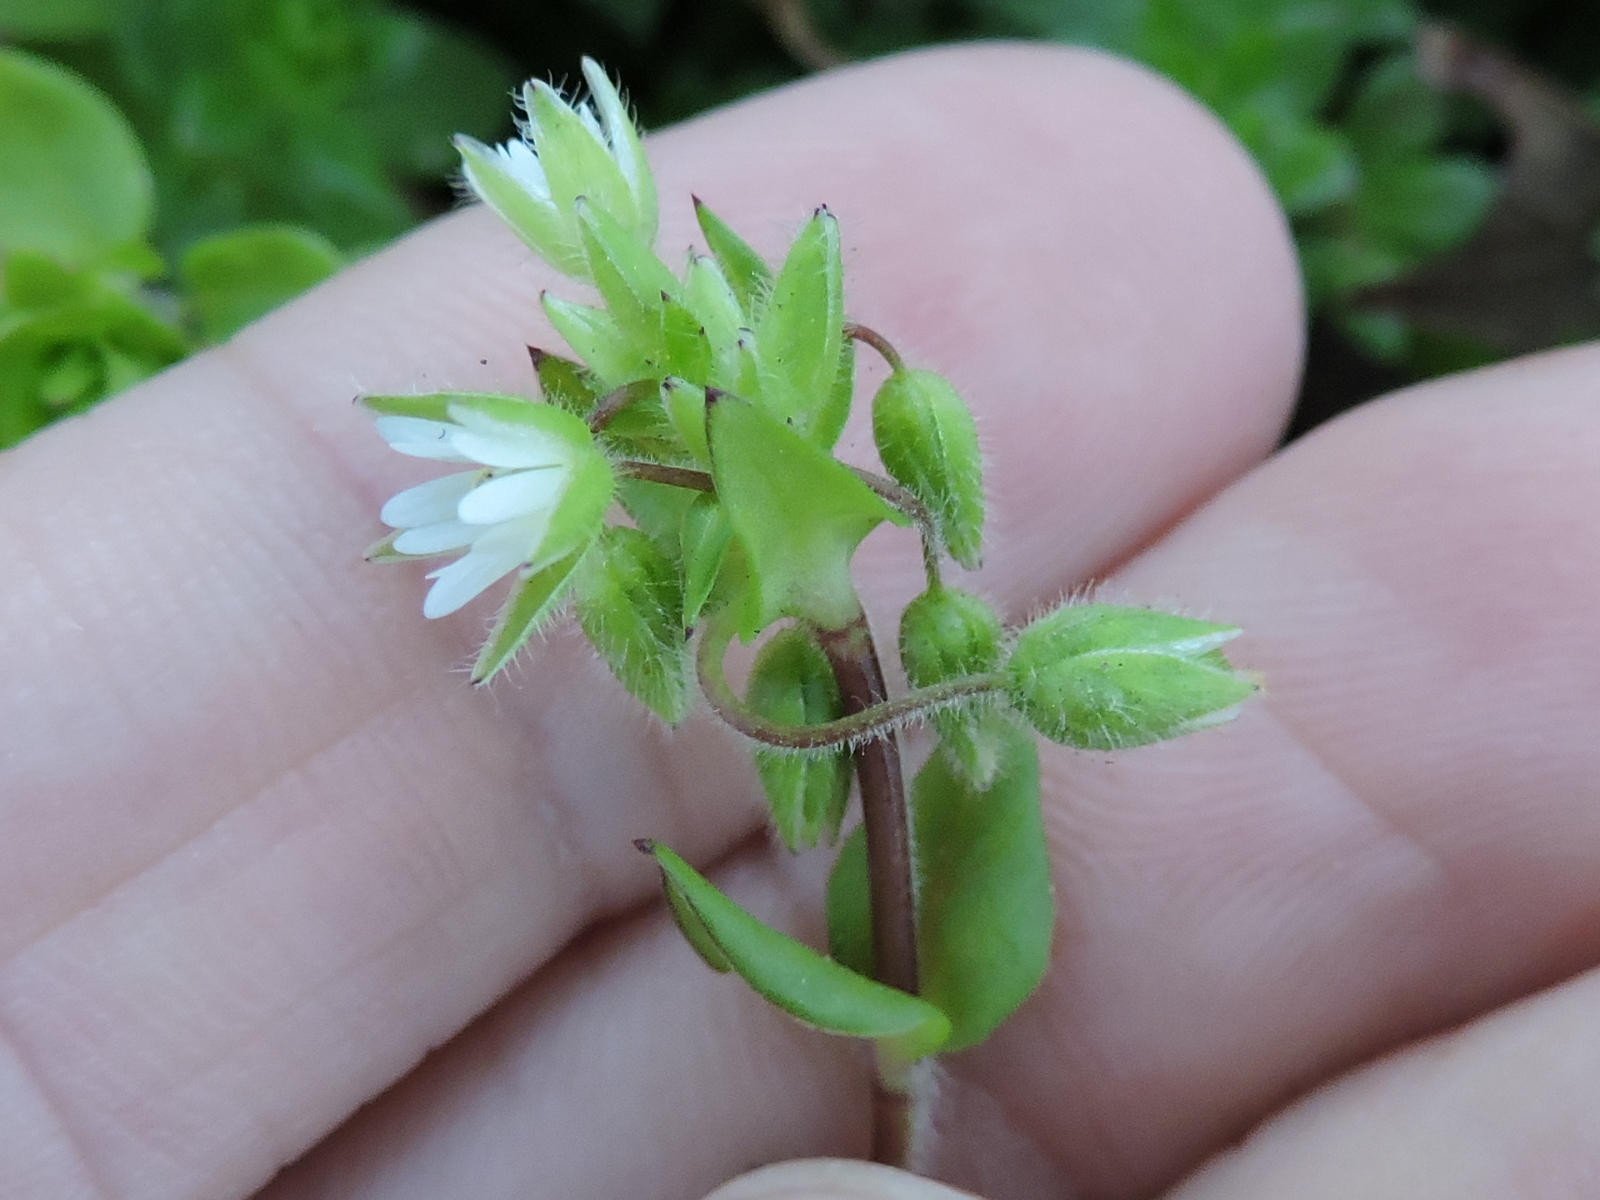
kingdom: Plantae
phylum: Tracheophyta
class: Magnoliopsida
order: Caryophyllales
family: Caryophyllaceae
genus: Stellaria
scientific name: Stellaria media
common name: Common chickweed
